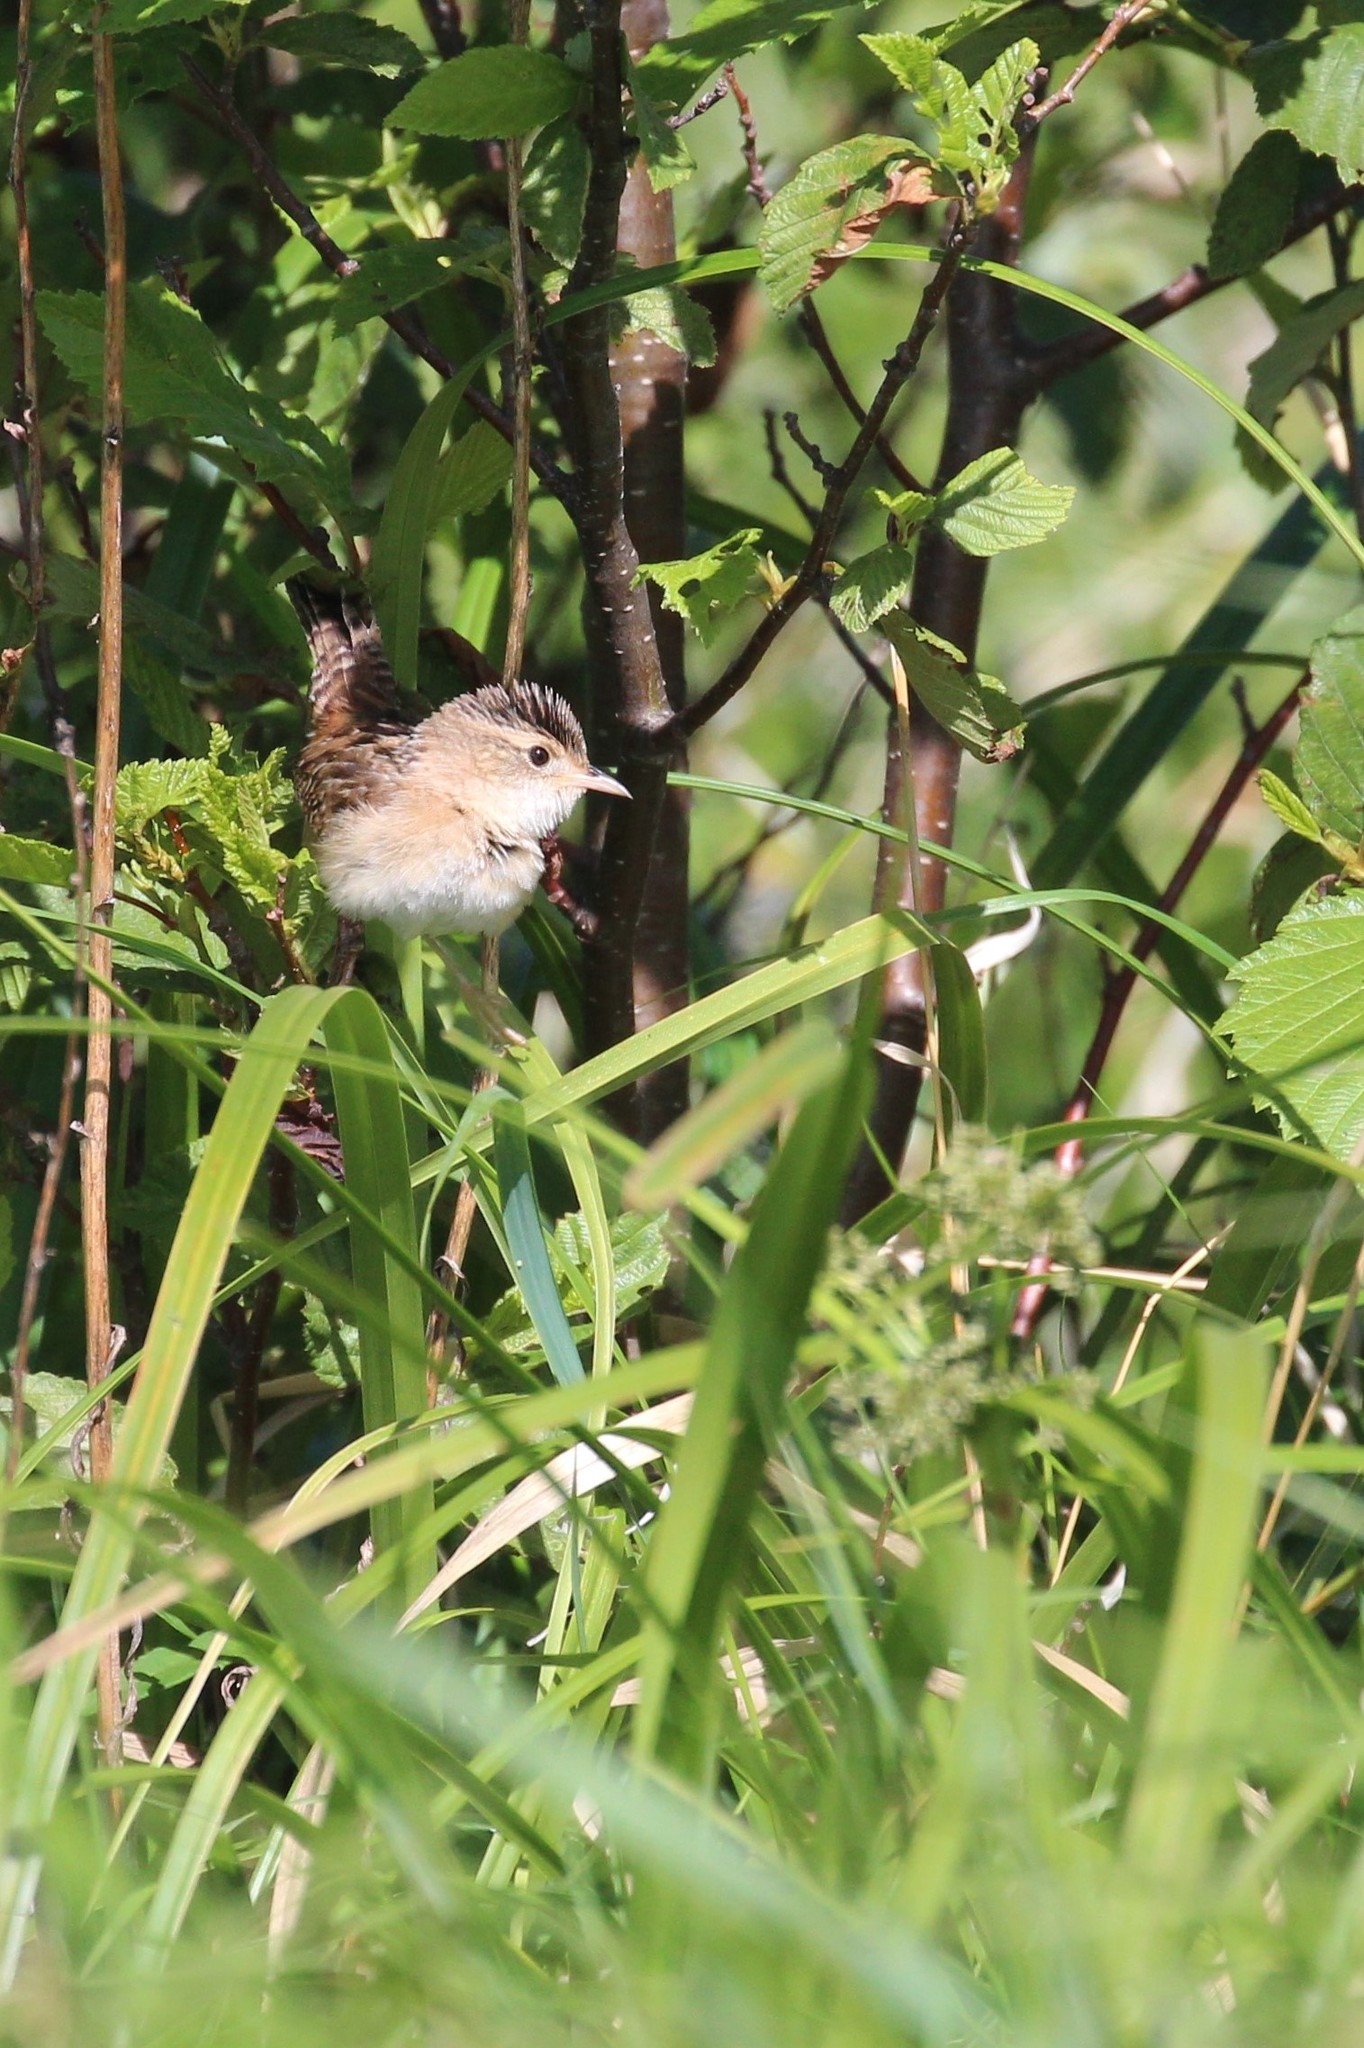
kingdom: Animalia
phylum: Chordata
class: Aves
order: Passeriformes
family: Troglodytidae
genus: Cistothorus
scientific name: Cistothorus platensis
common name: Sedge wren
